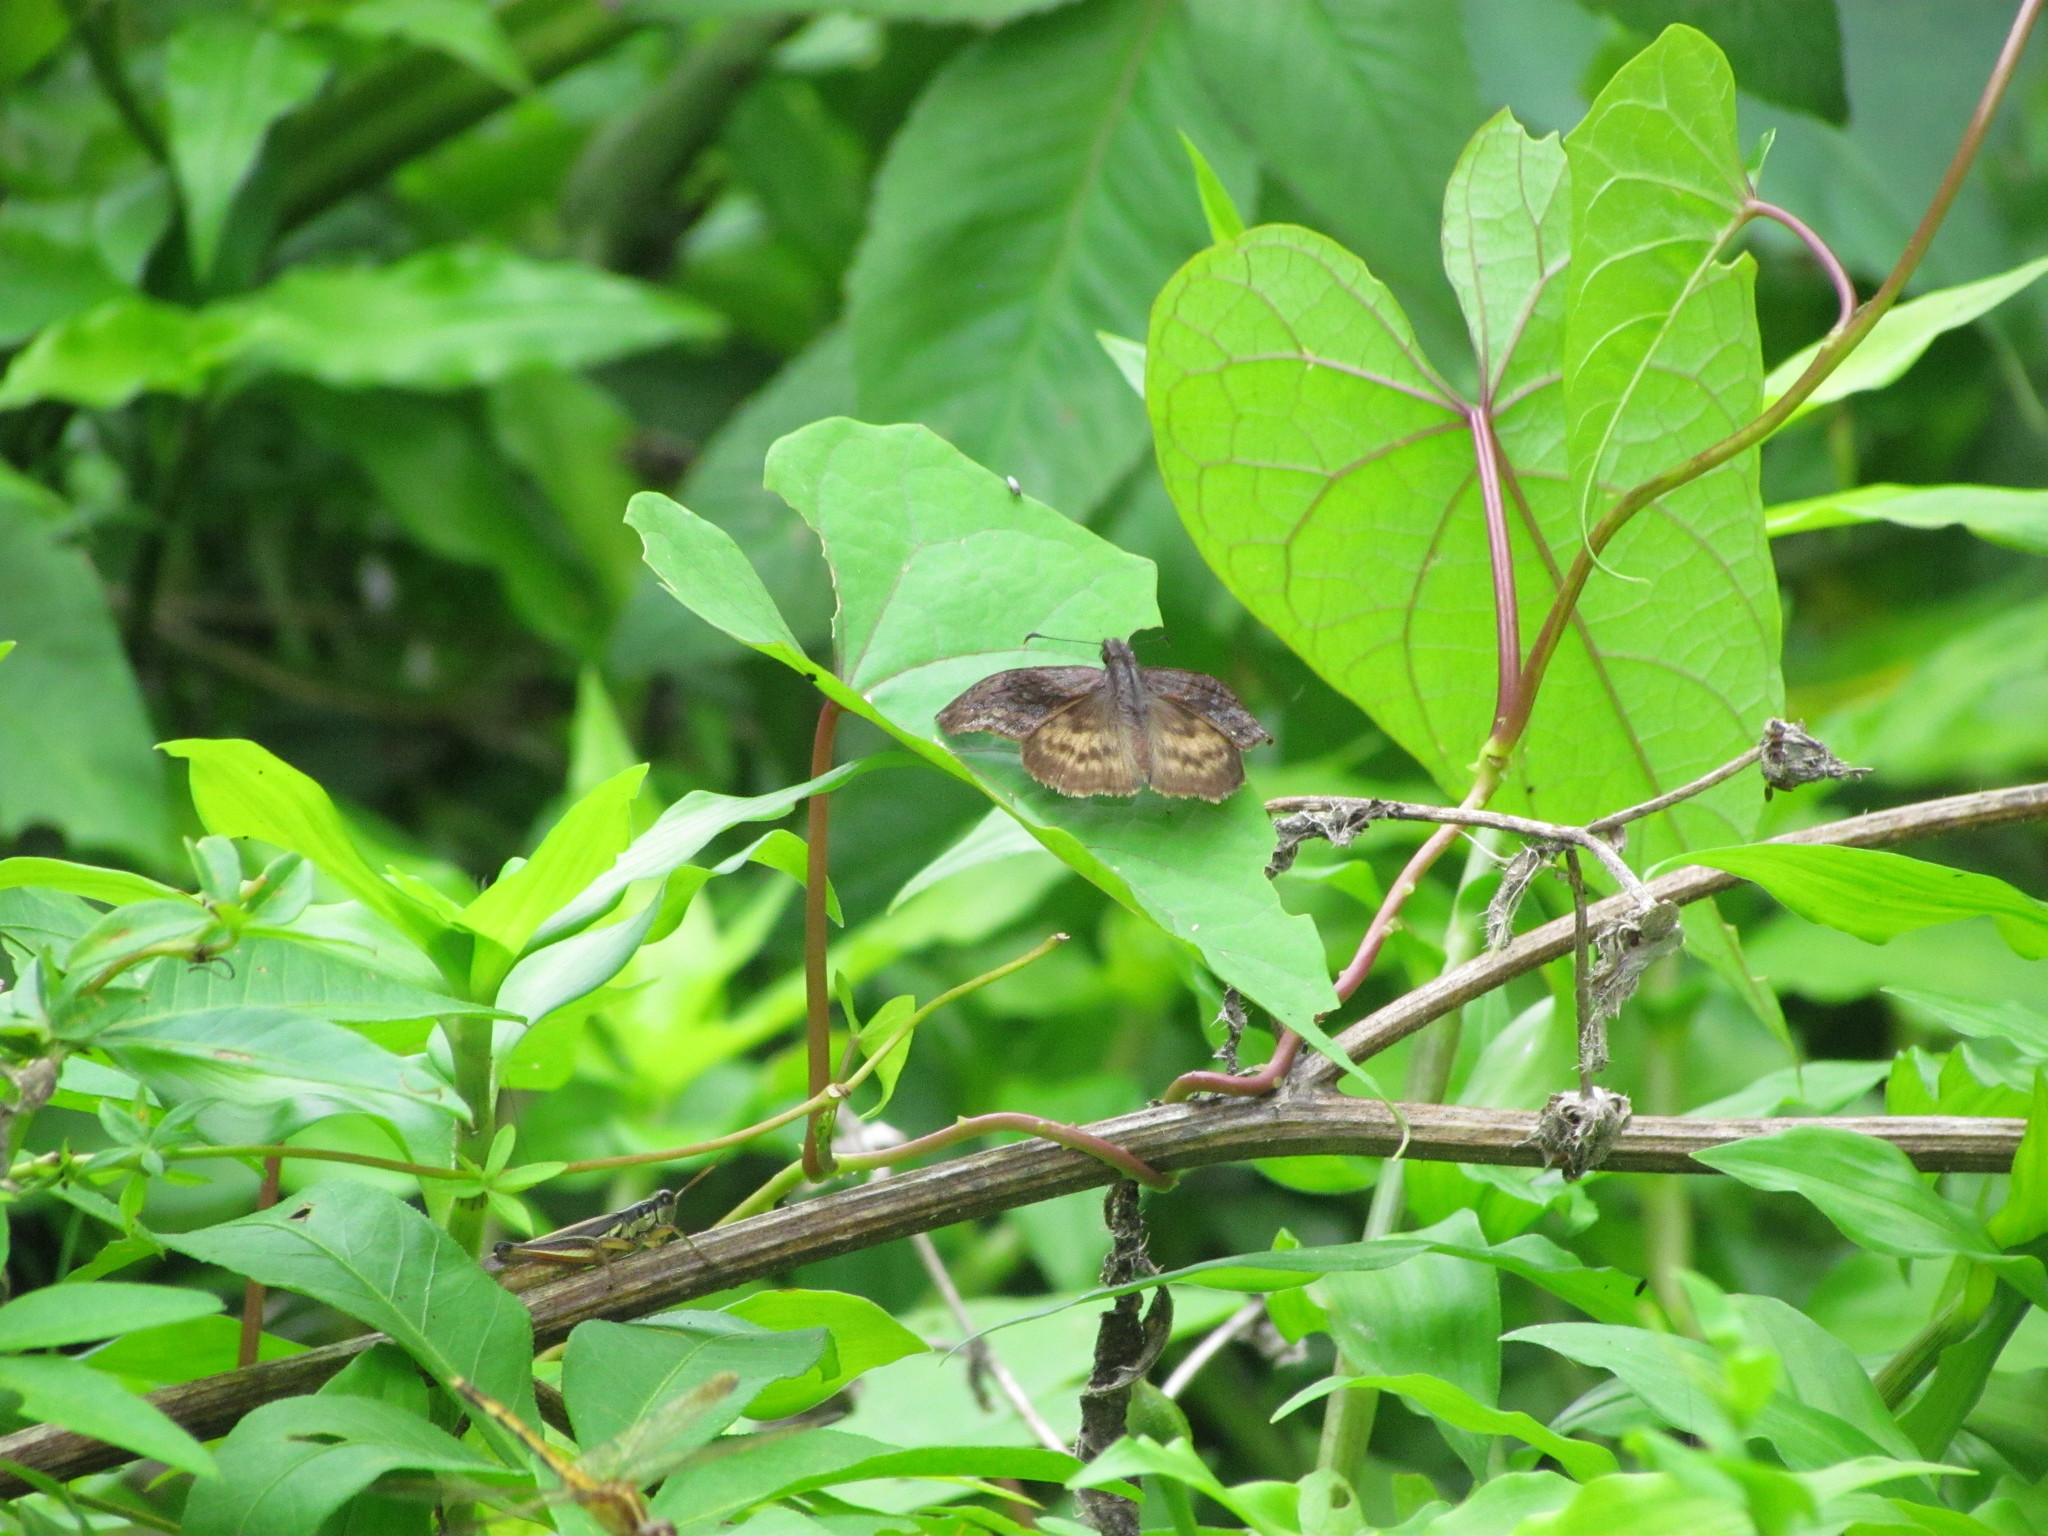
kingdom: Animalia
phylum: Arthropoda
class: Insecta
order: Lepidoptera
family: Hesperiidae
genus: Theagenes
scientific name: Theagenes dichrous
